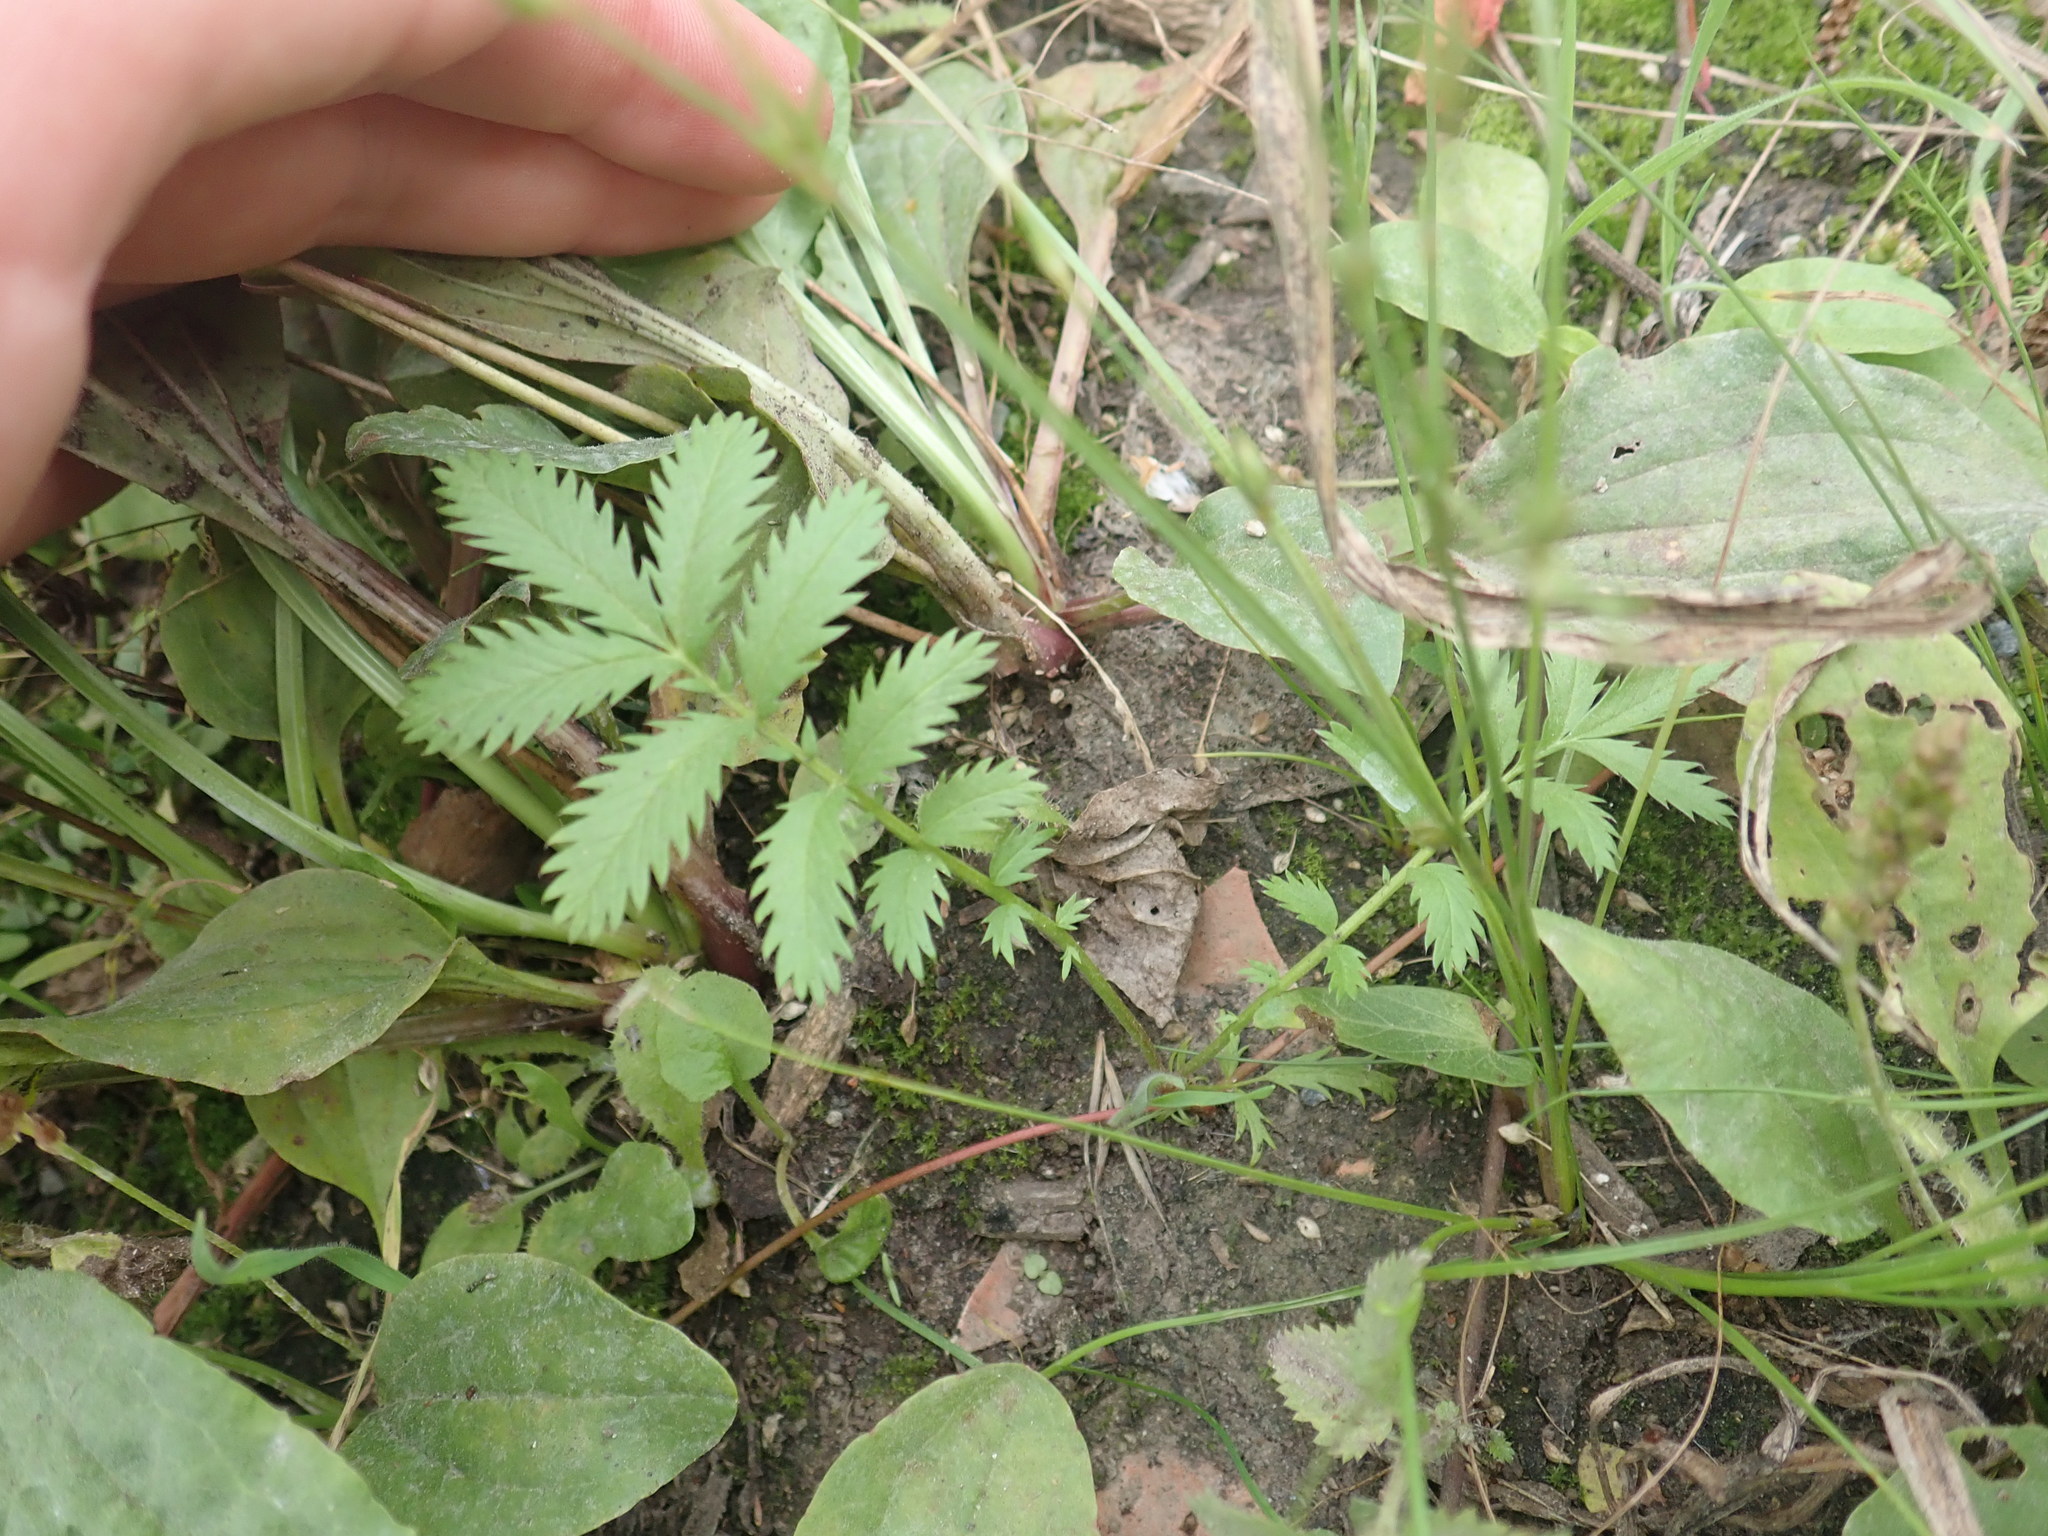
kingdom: Plantae
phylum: Tracheophyta
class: Magnoliopsida
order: Rosales
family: Rosaceae
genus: Argentina
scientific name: Argentina anserina
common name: Common silverweed
